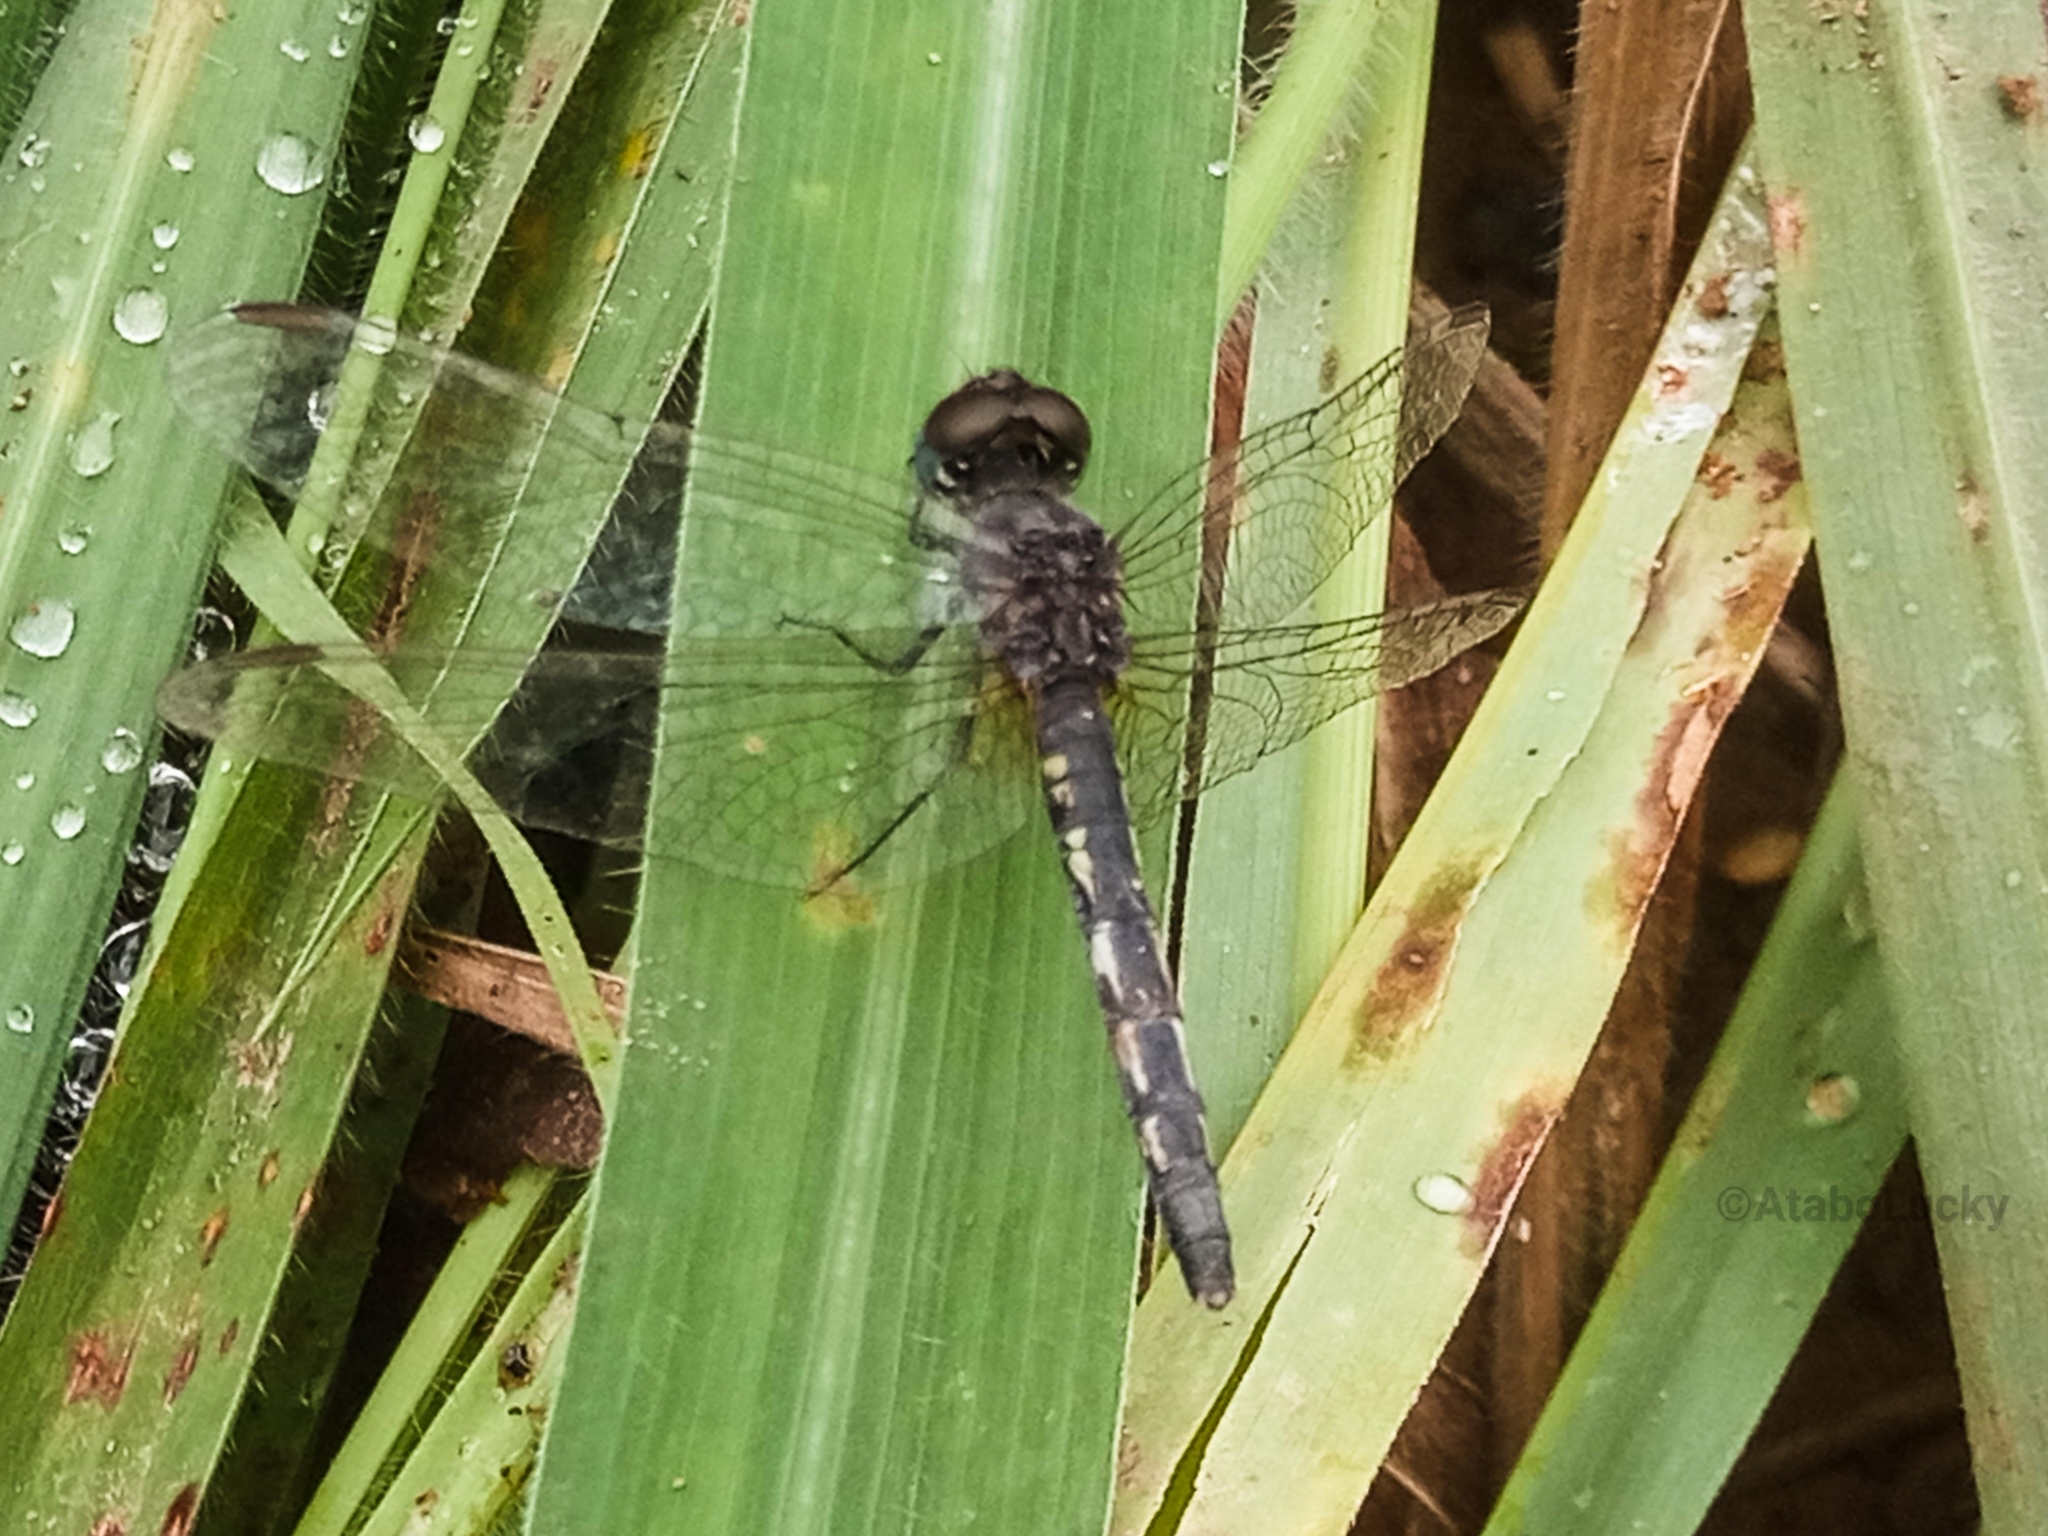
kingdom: Animalia
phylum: Arthropoda
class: Insecta
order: Odonata
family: Libellulidae
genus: Diplacodes
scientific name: Diplacodes lefebvrii
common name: Black percher
